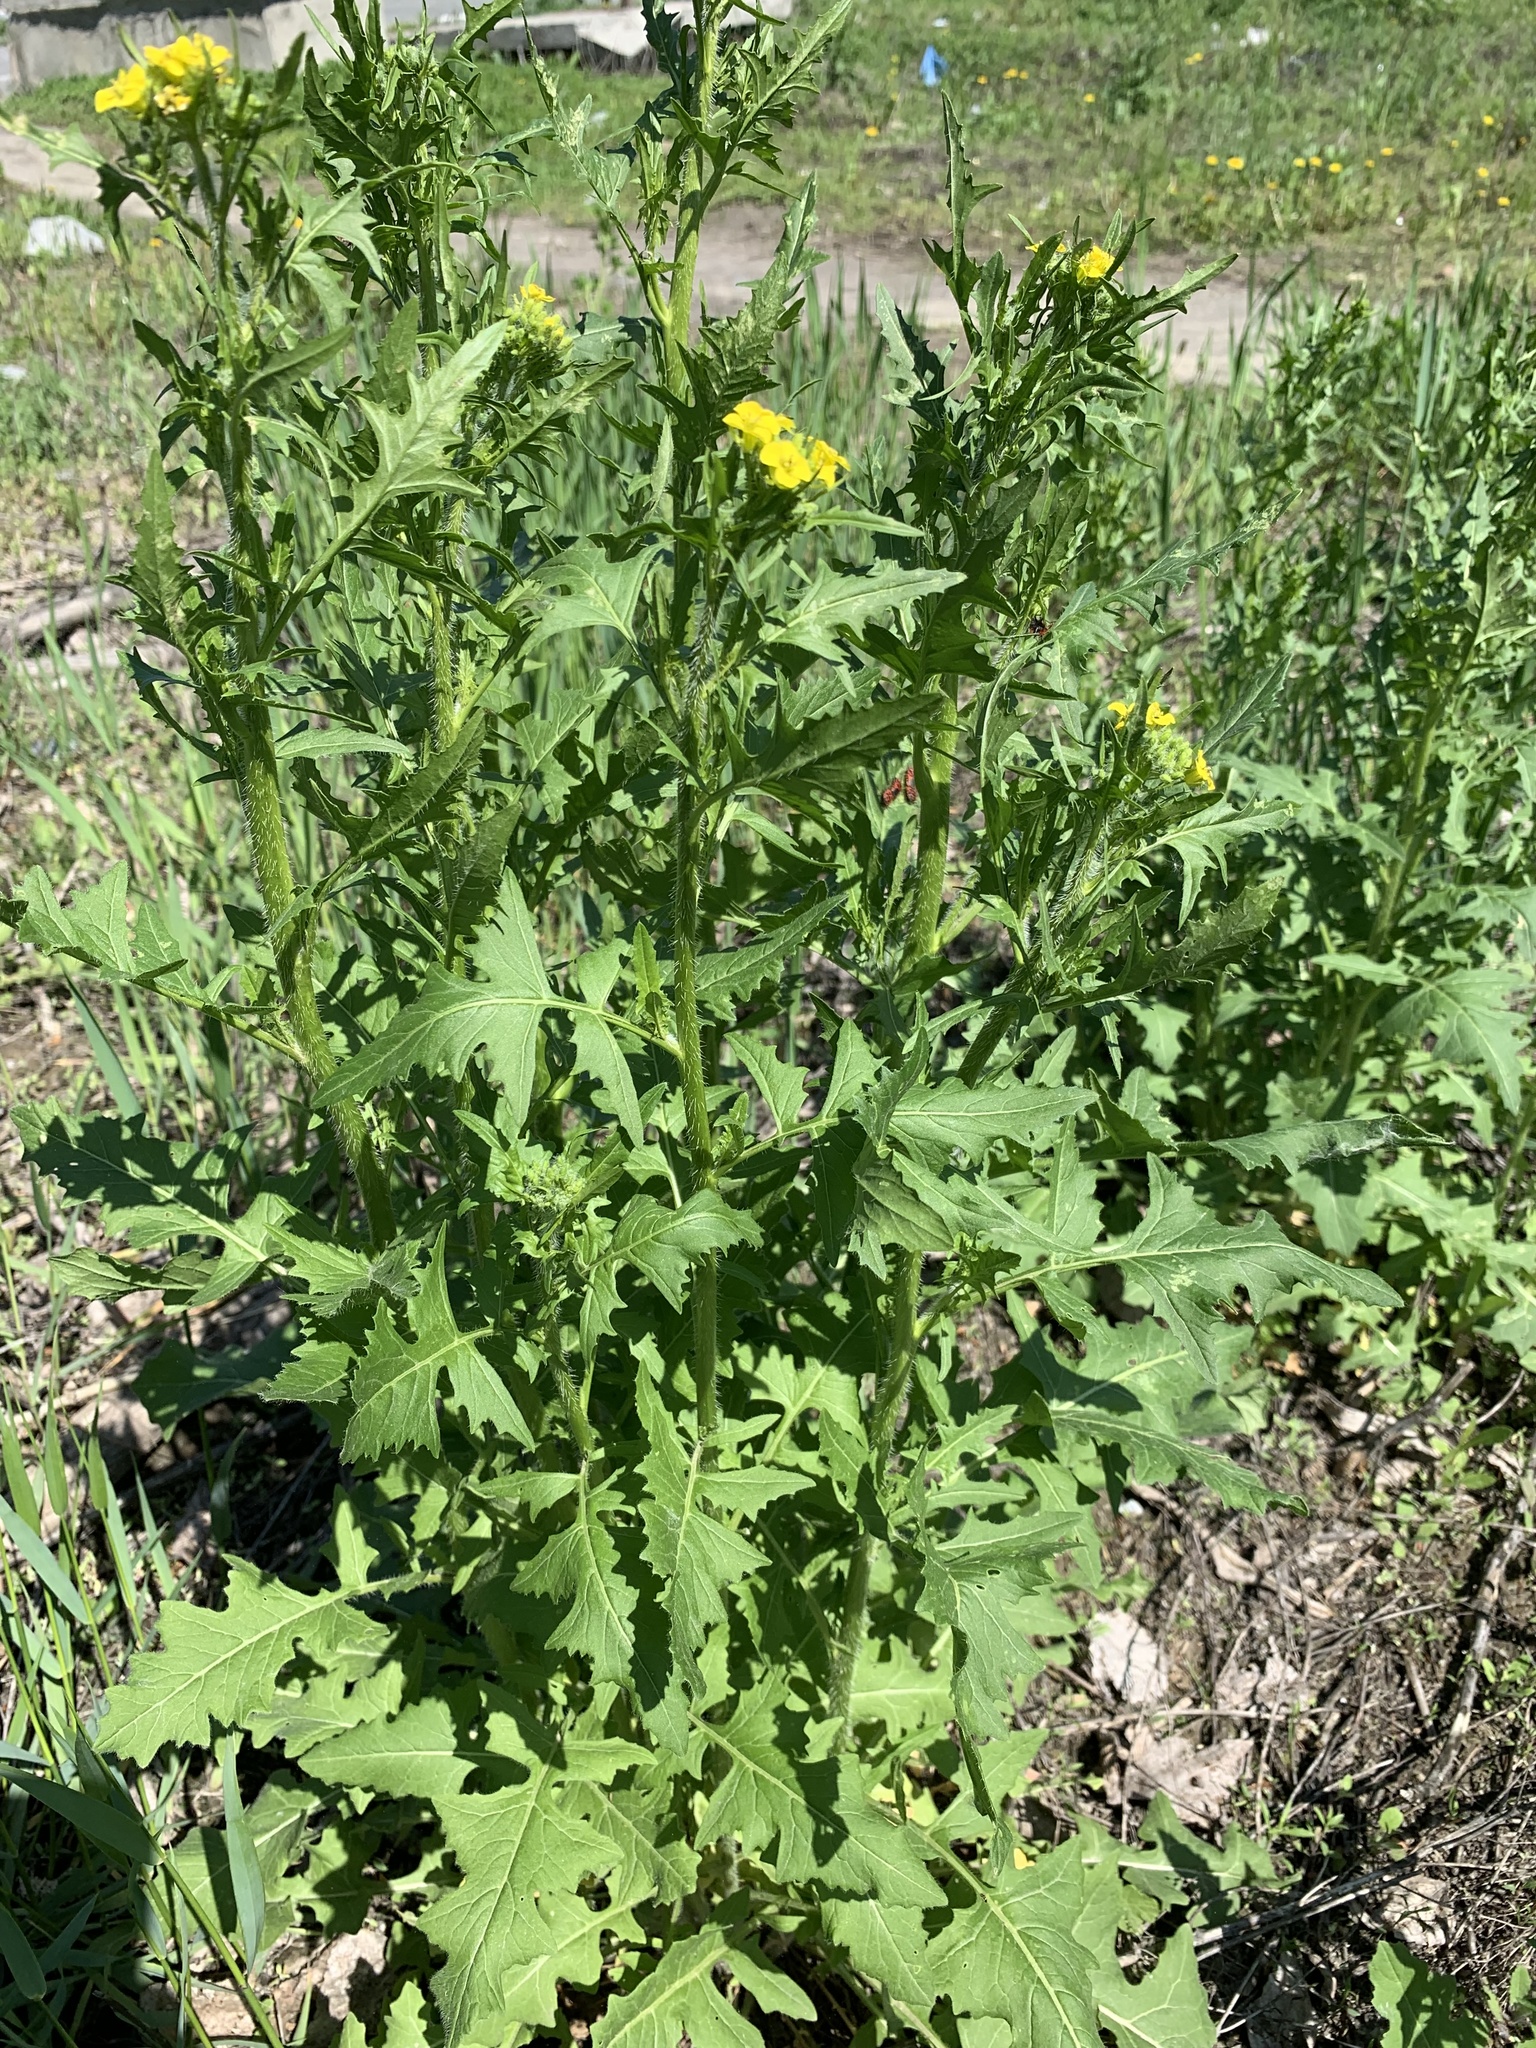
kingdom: Plantae
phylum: Tracheophyta
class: Magnoliopsida
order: Brassicales
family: Brassicaceae
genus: Sisymbrium
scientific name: Sisymbrium loeselii
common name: False london-rocket
